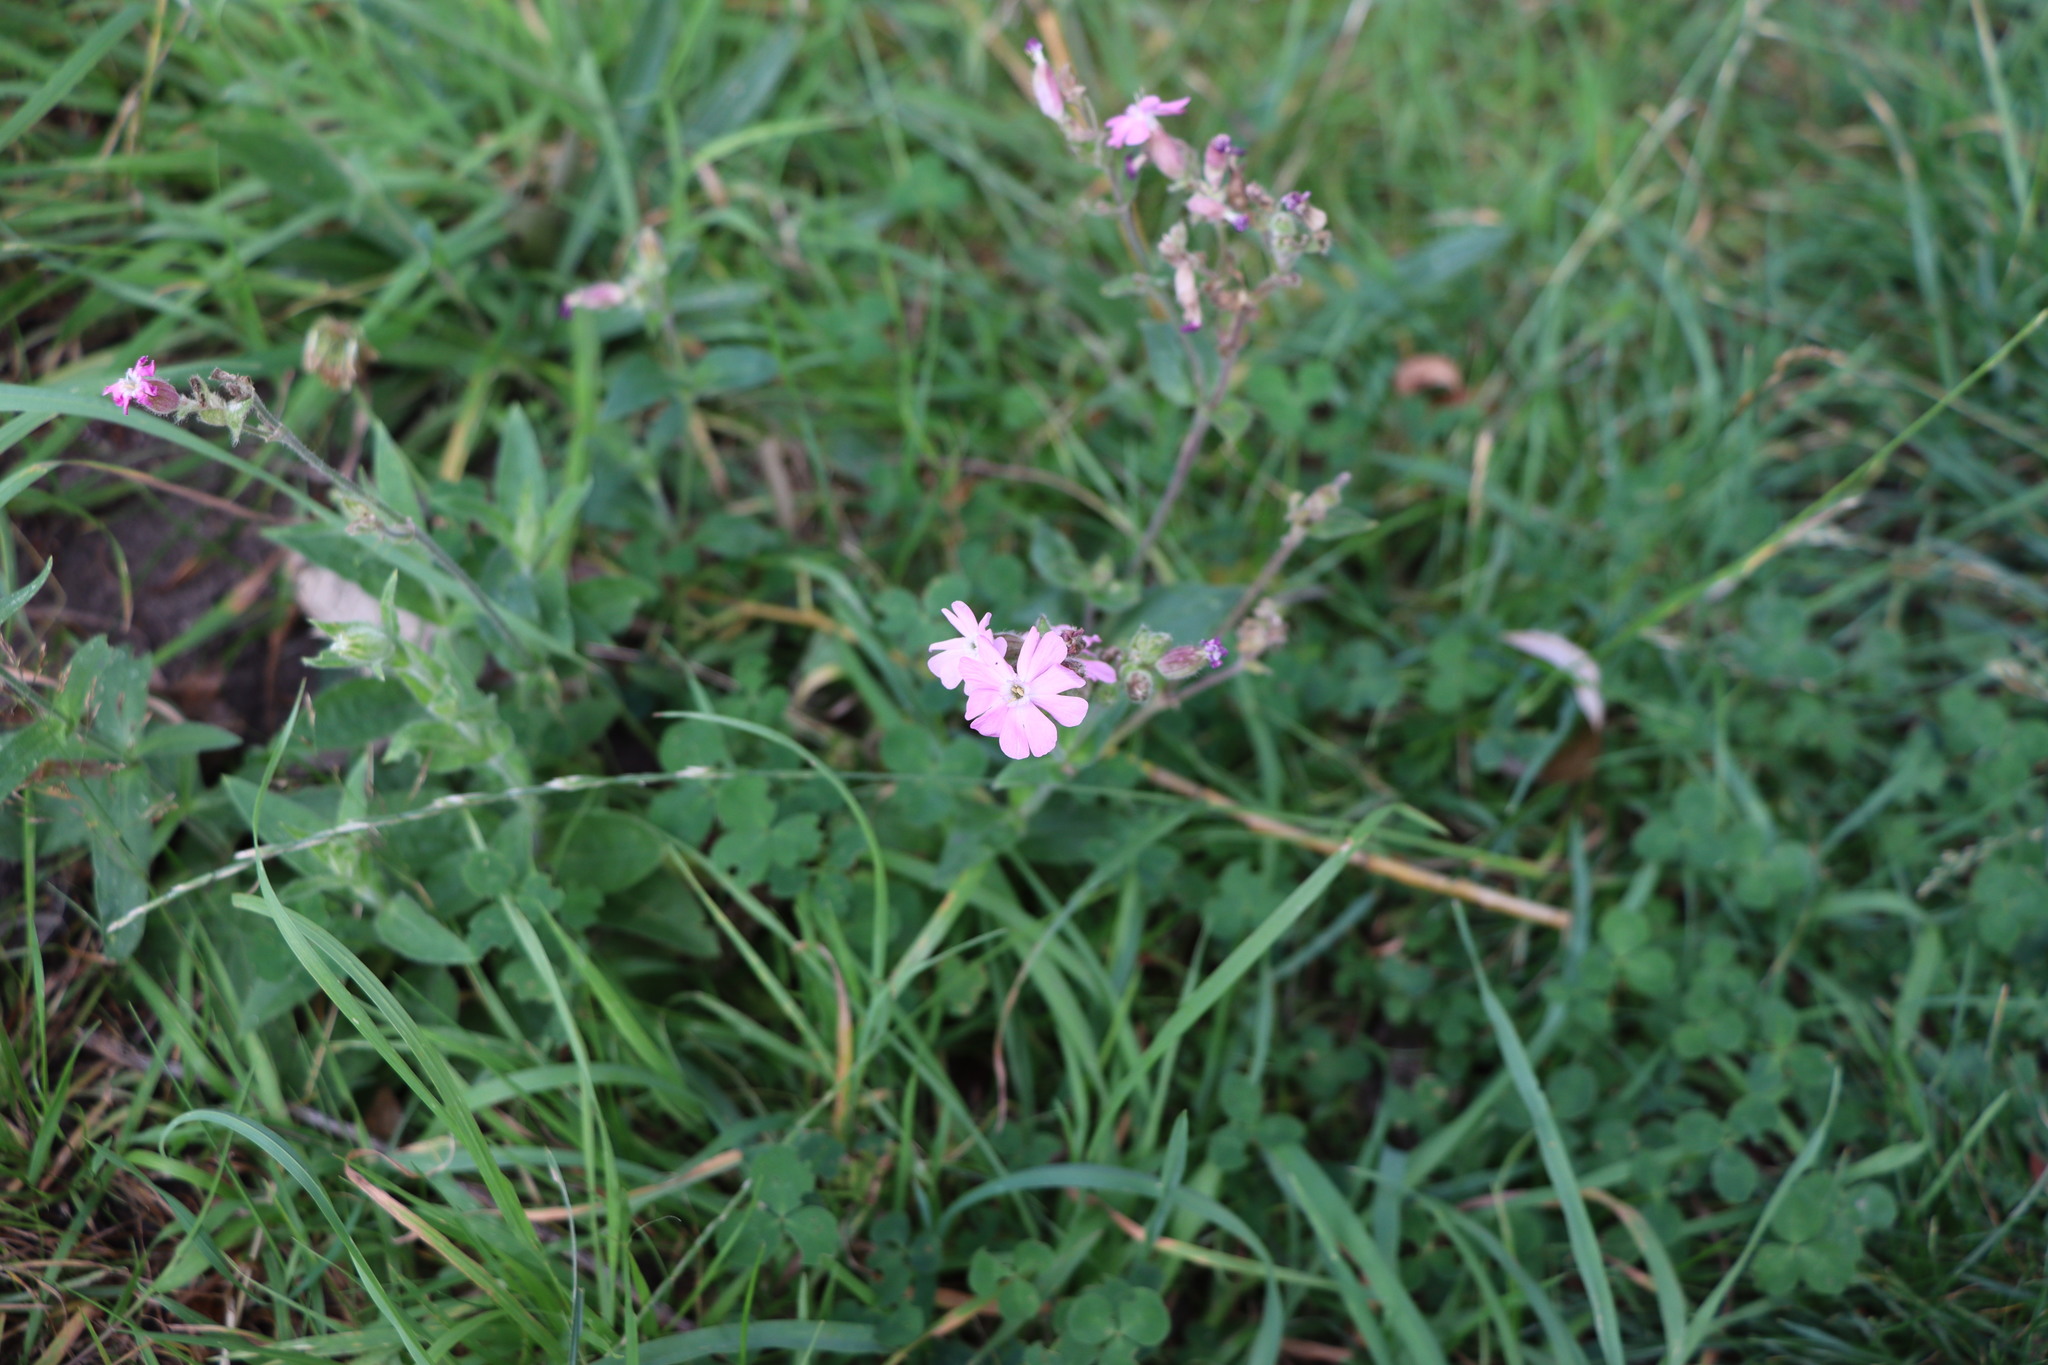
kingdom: Plantae
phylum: Tracheophyta
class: Magnoliopsida
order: Caryophyllales
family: Caryophyllaceae
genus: Silene
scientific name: Silene dioica
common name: Red campion
